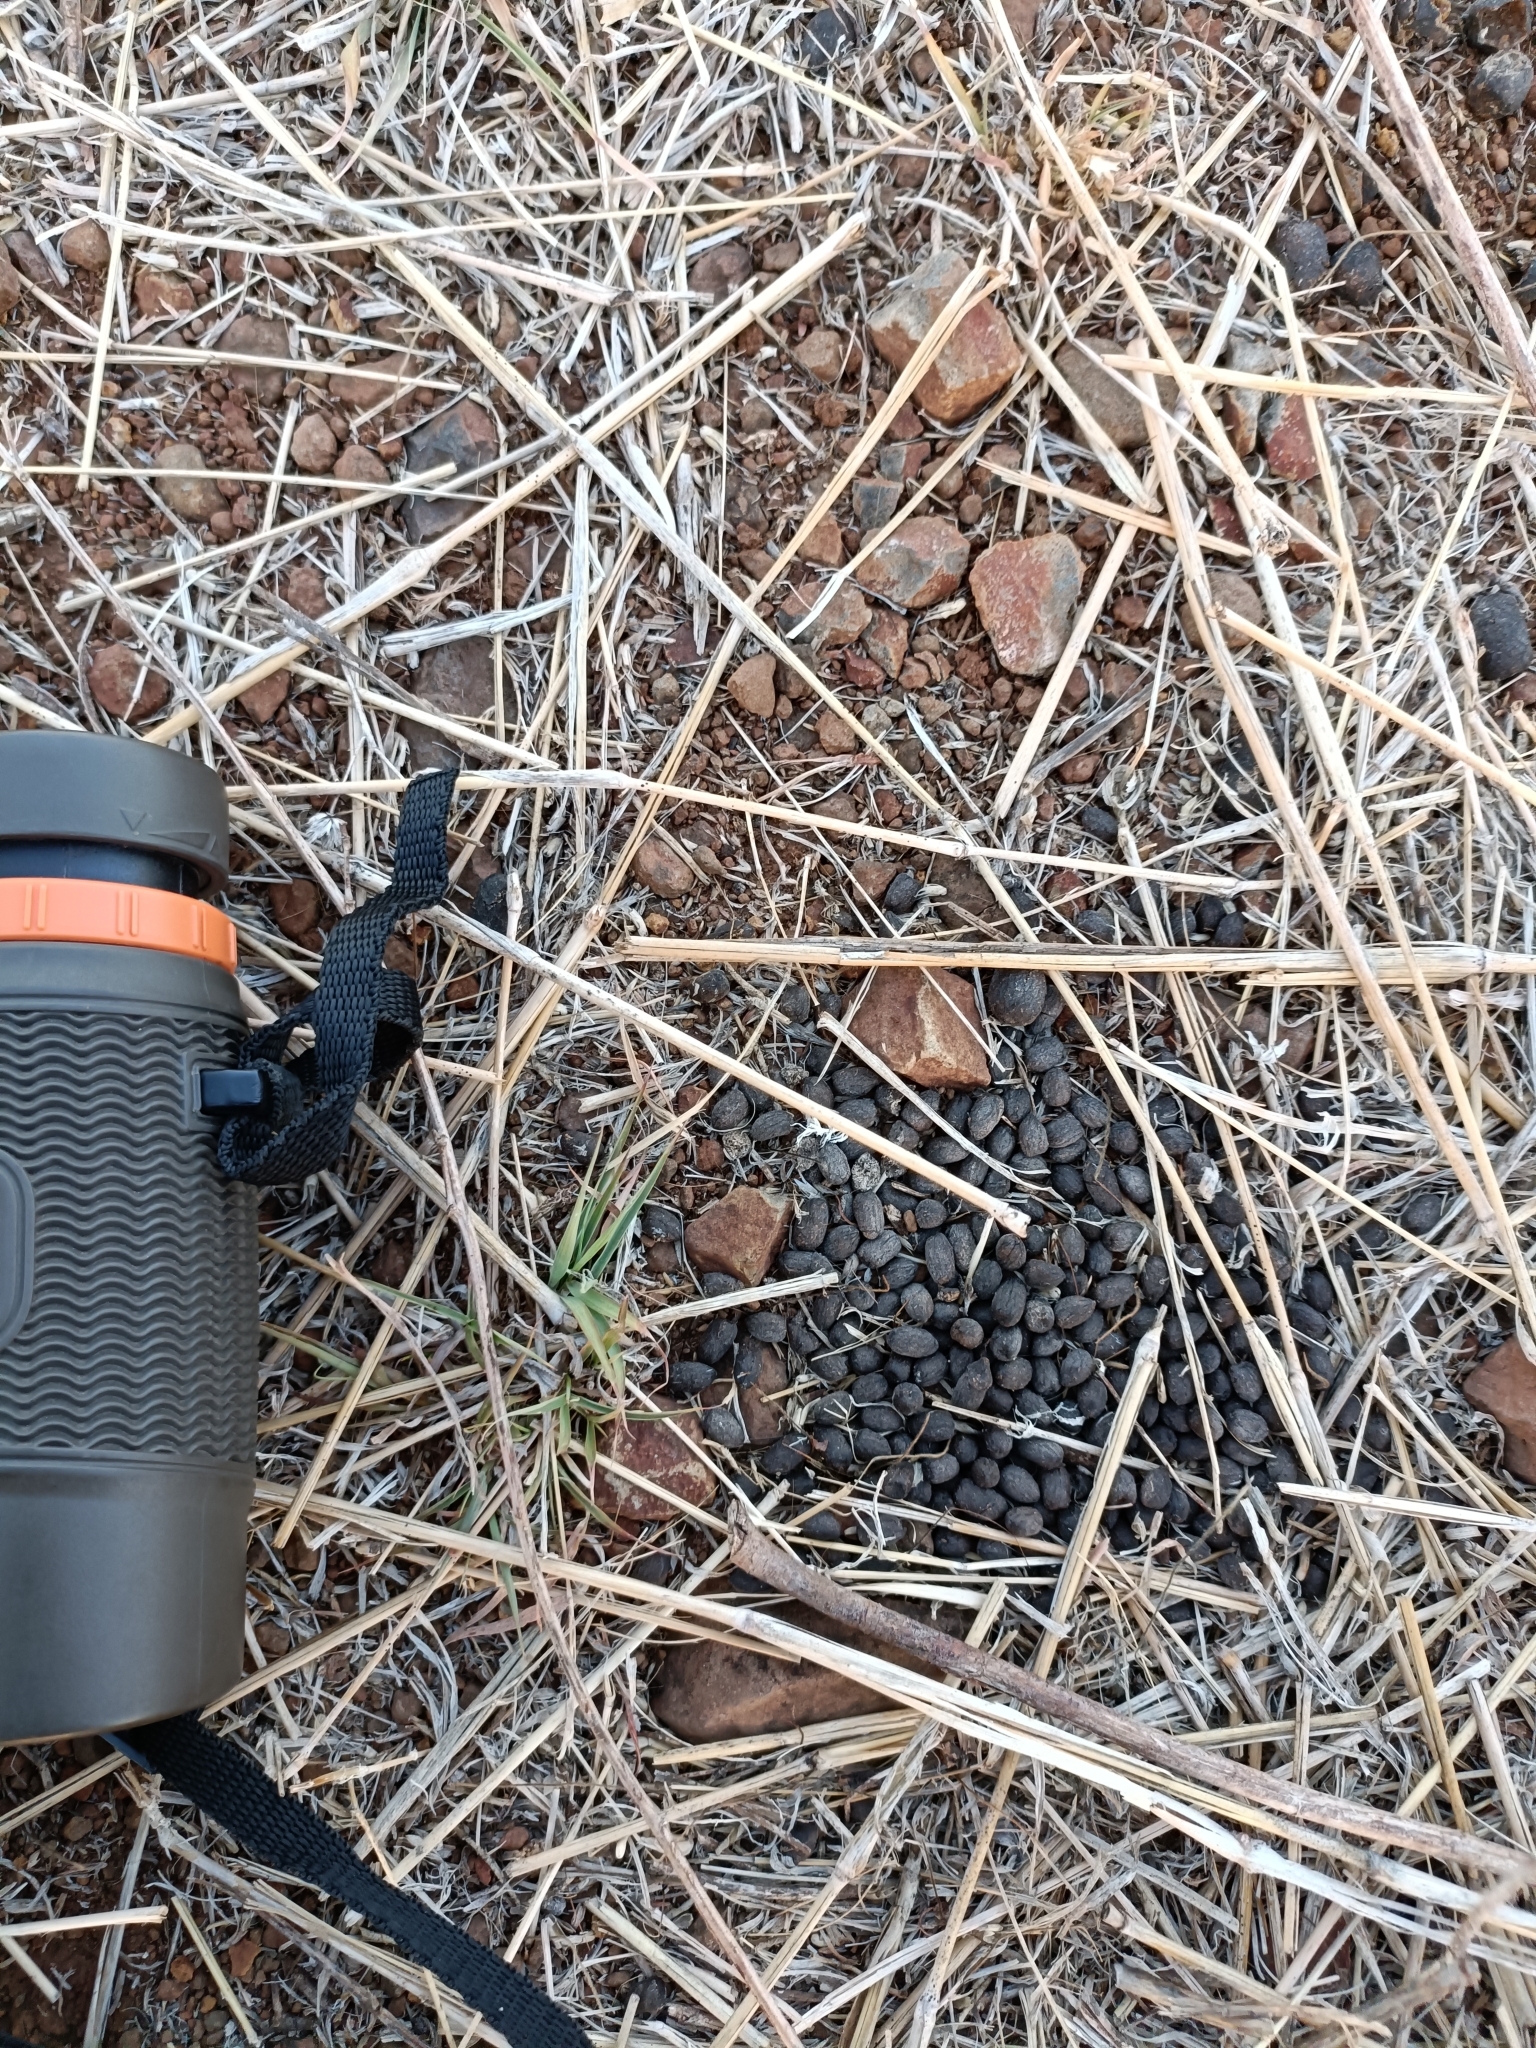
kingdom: Animalia
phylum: Chordata
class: Mammalia
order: Artiodactyla
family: Bovidae
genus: Gazella
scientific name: Gazella bennettii
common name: Indian gazelle
